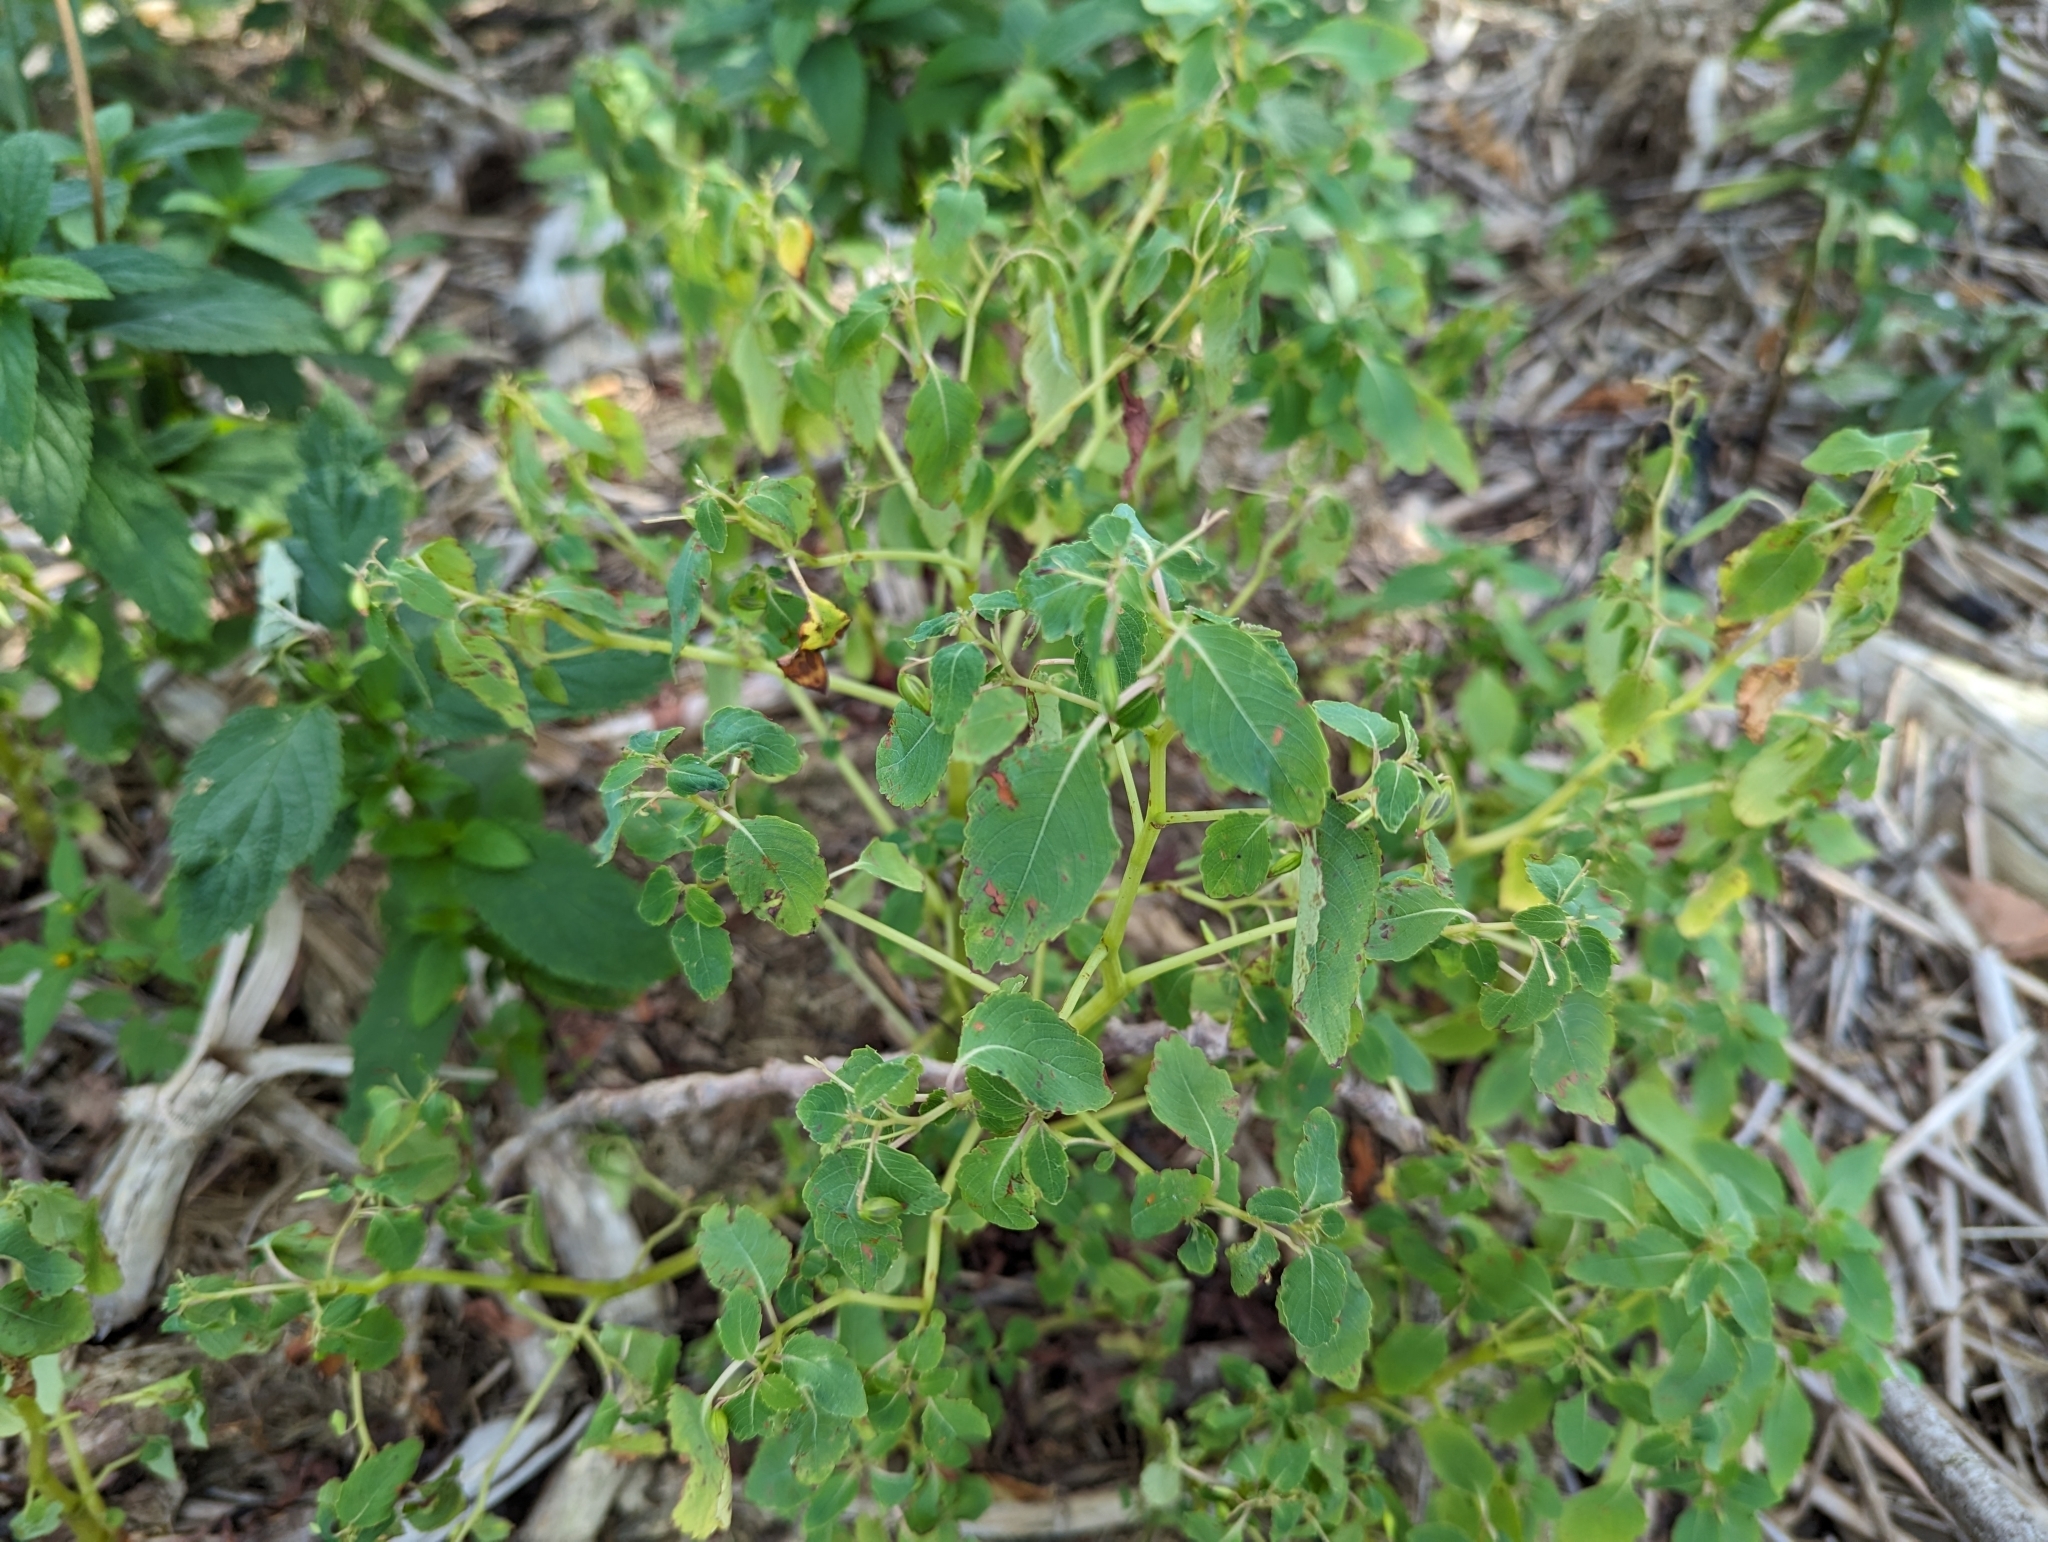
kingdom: Plantae
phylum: Tracheophyta
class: Magnoliopsida
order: Ericales
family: Balsaminaceae
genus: Impatiens
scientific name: Impatiens capensis
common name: Orange balsam
